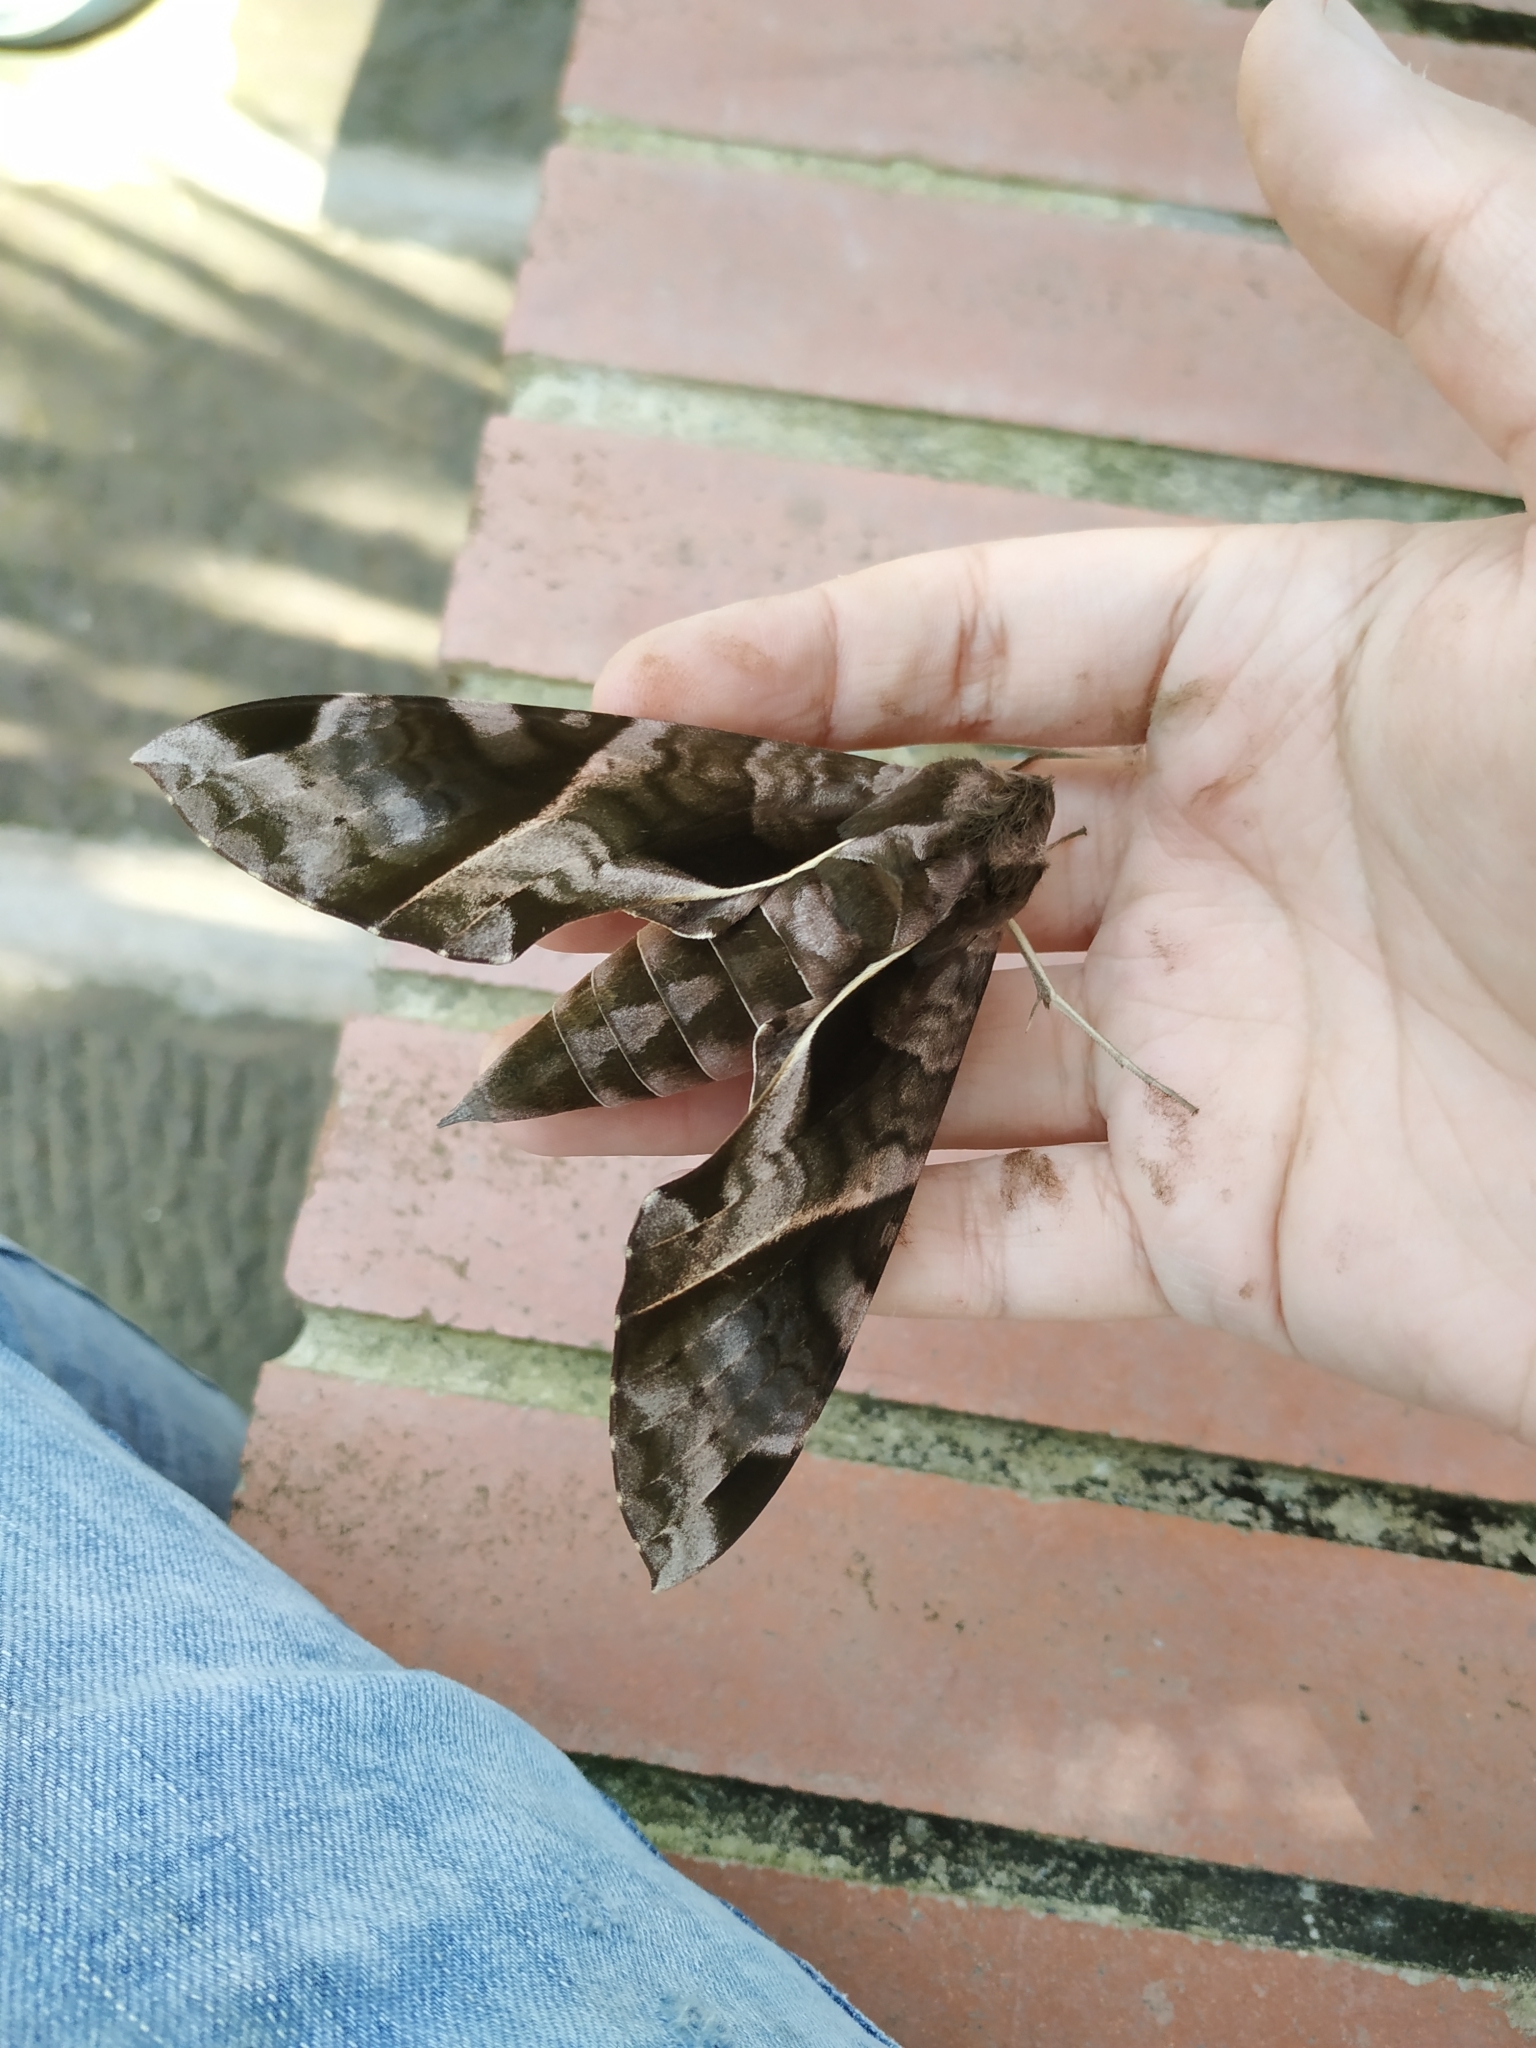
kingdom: Animalia
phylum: Arthropoda
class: Insecta
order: Lepidoptera
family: Sphingidae
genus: Eumorpha
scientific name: Eumorpha anchemolus
